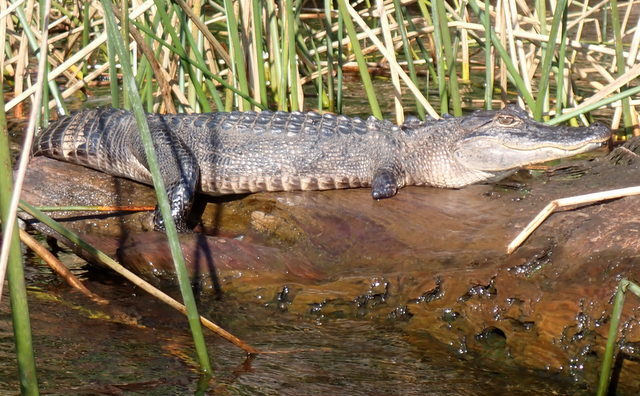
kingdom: Animalia
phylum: Chordata
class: Crocodylia
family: Alligatoridae
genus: Alligator
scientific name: Alligator mississippiensis
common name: American alligator
